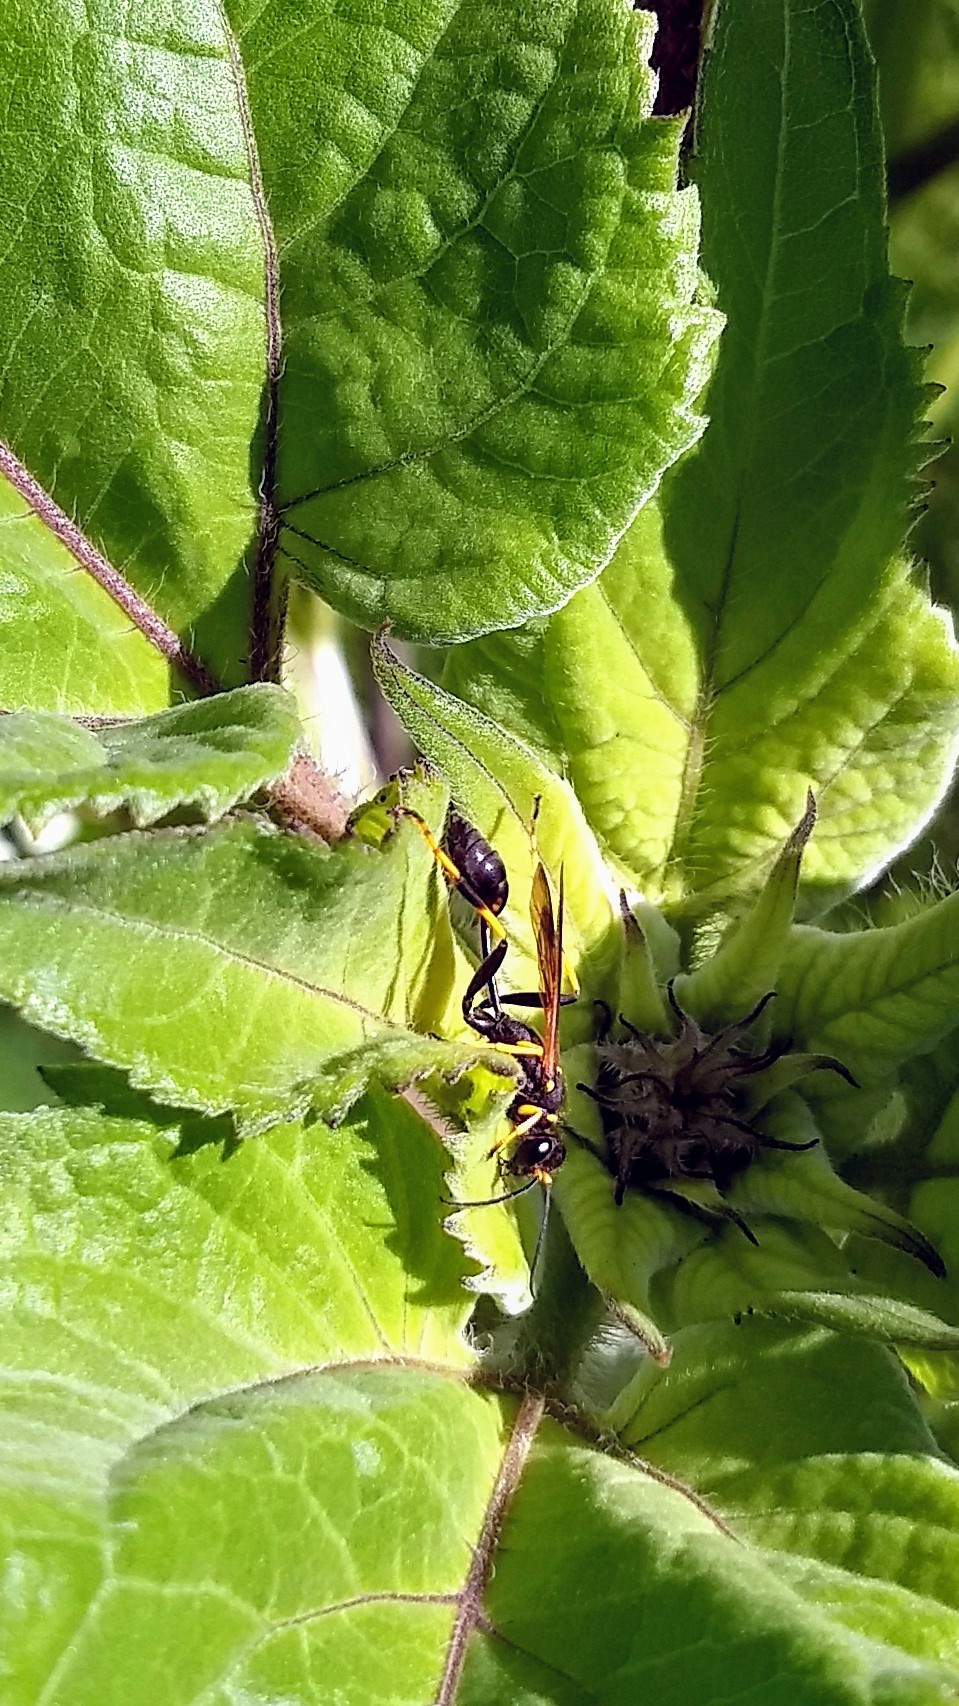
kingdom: Animalia
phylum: Arthropoda
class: Insecta
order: Hymenoptera
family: Sphecidae
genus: Sceliphron
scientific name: Sceliphron caementarium
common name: Mud dauber
